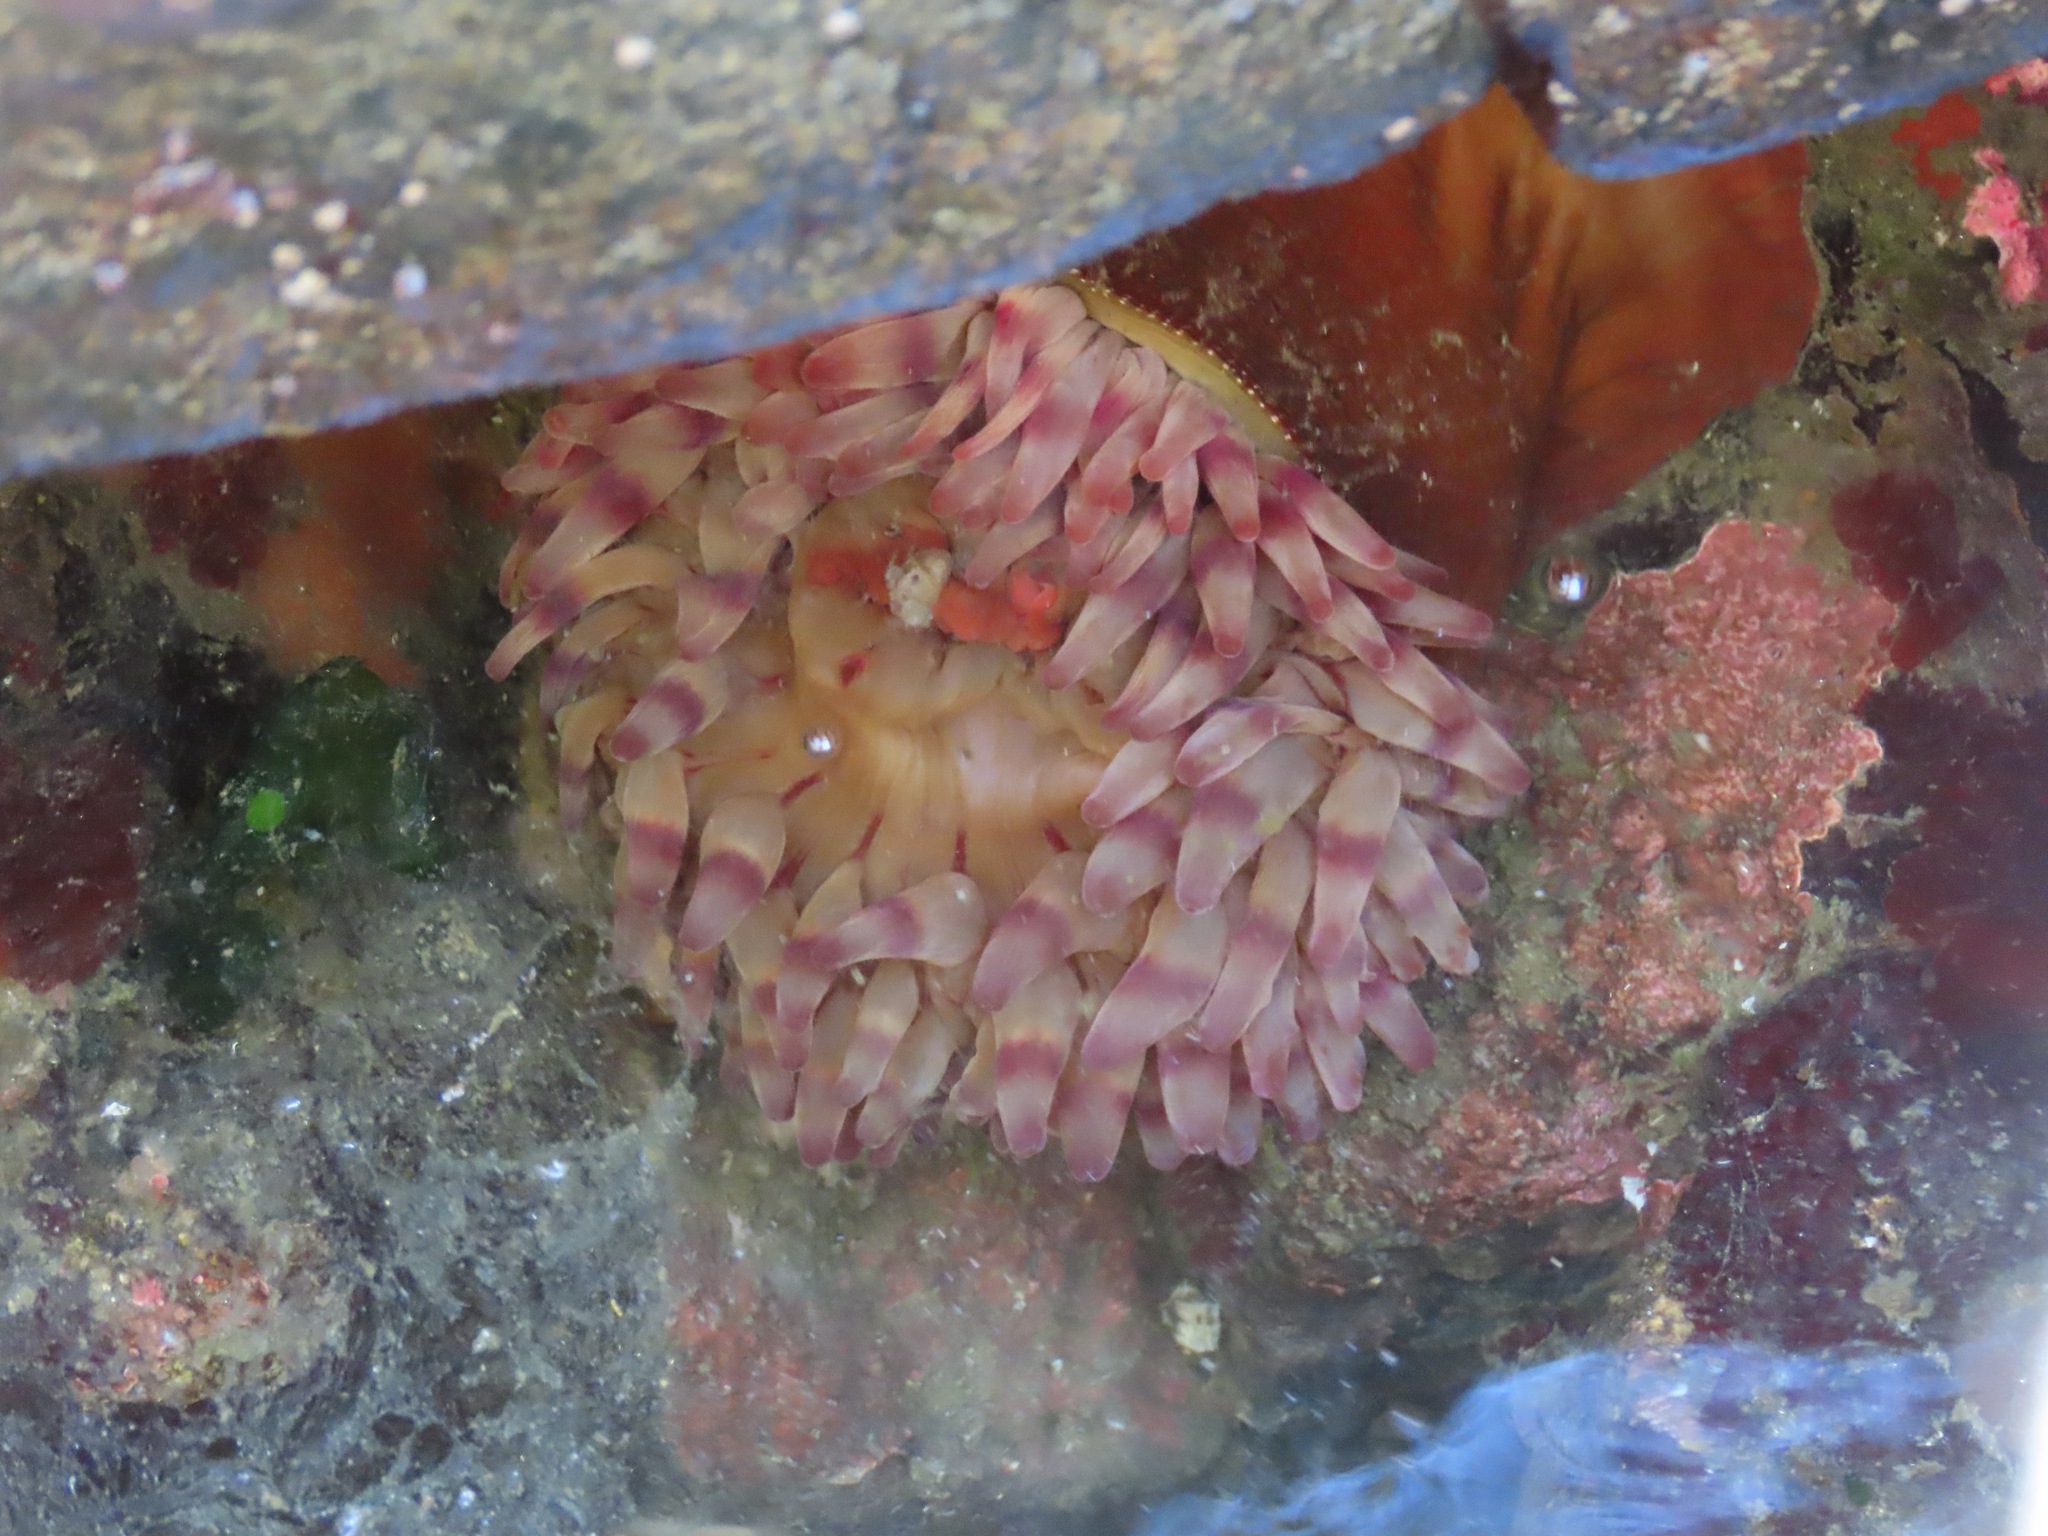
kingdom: Animalia
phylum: Cnidaria
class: Anthozoa
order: Actiniaria
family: Actiniidae
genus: Urticina
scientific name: Urticina grebelnyi
